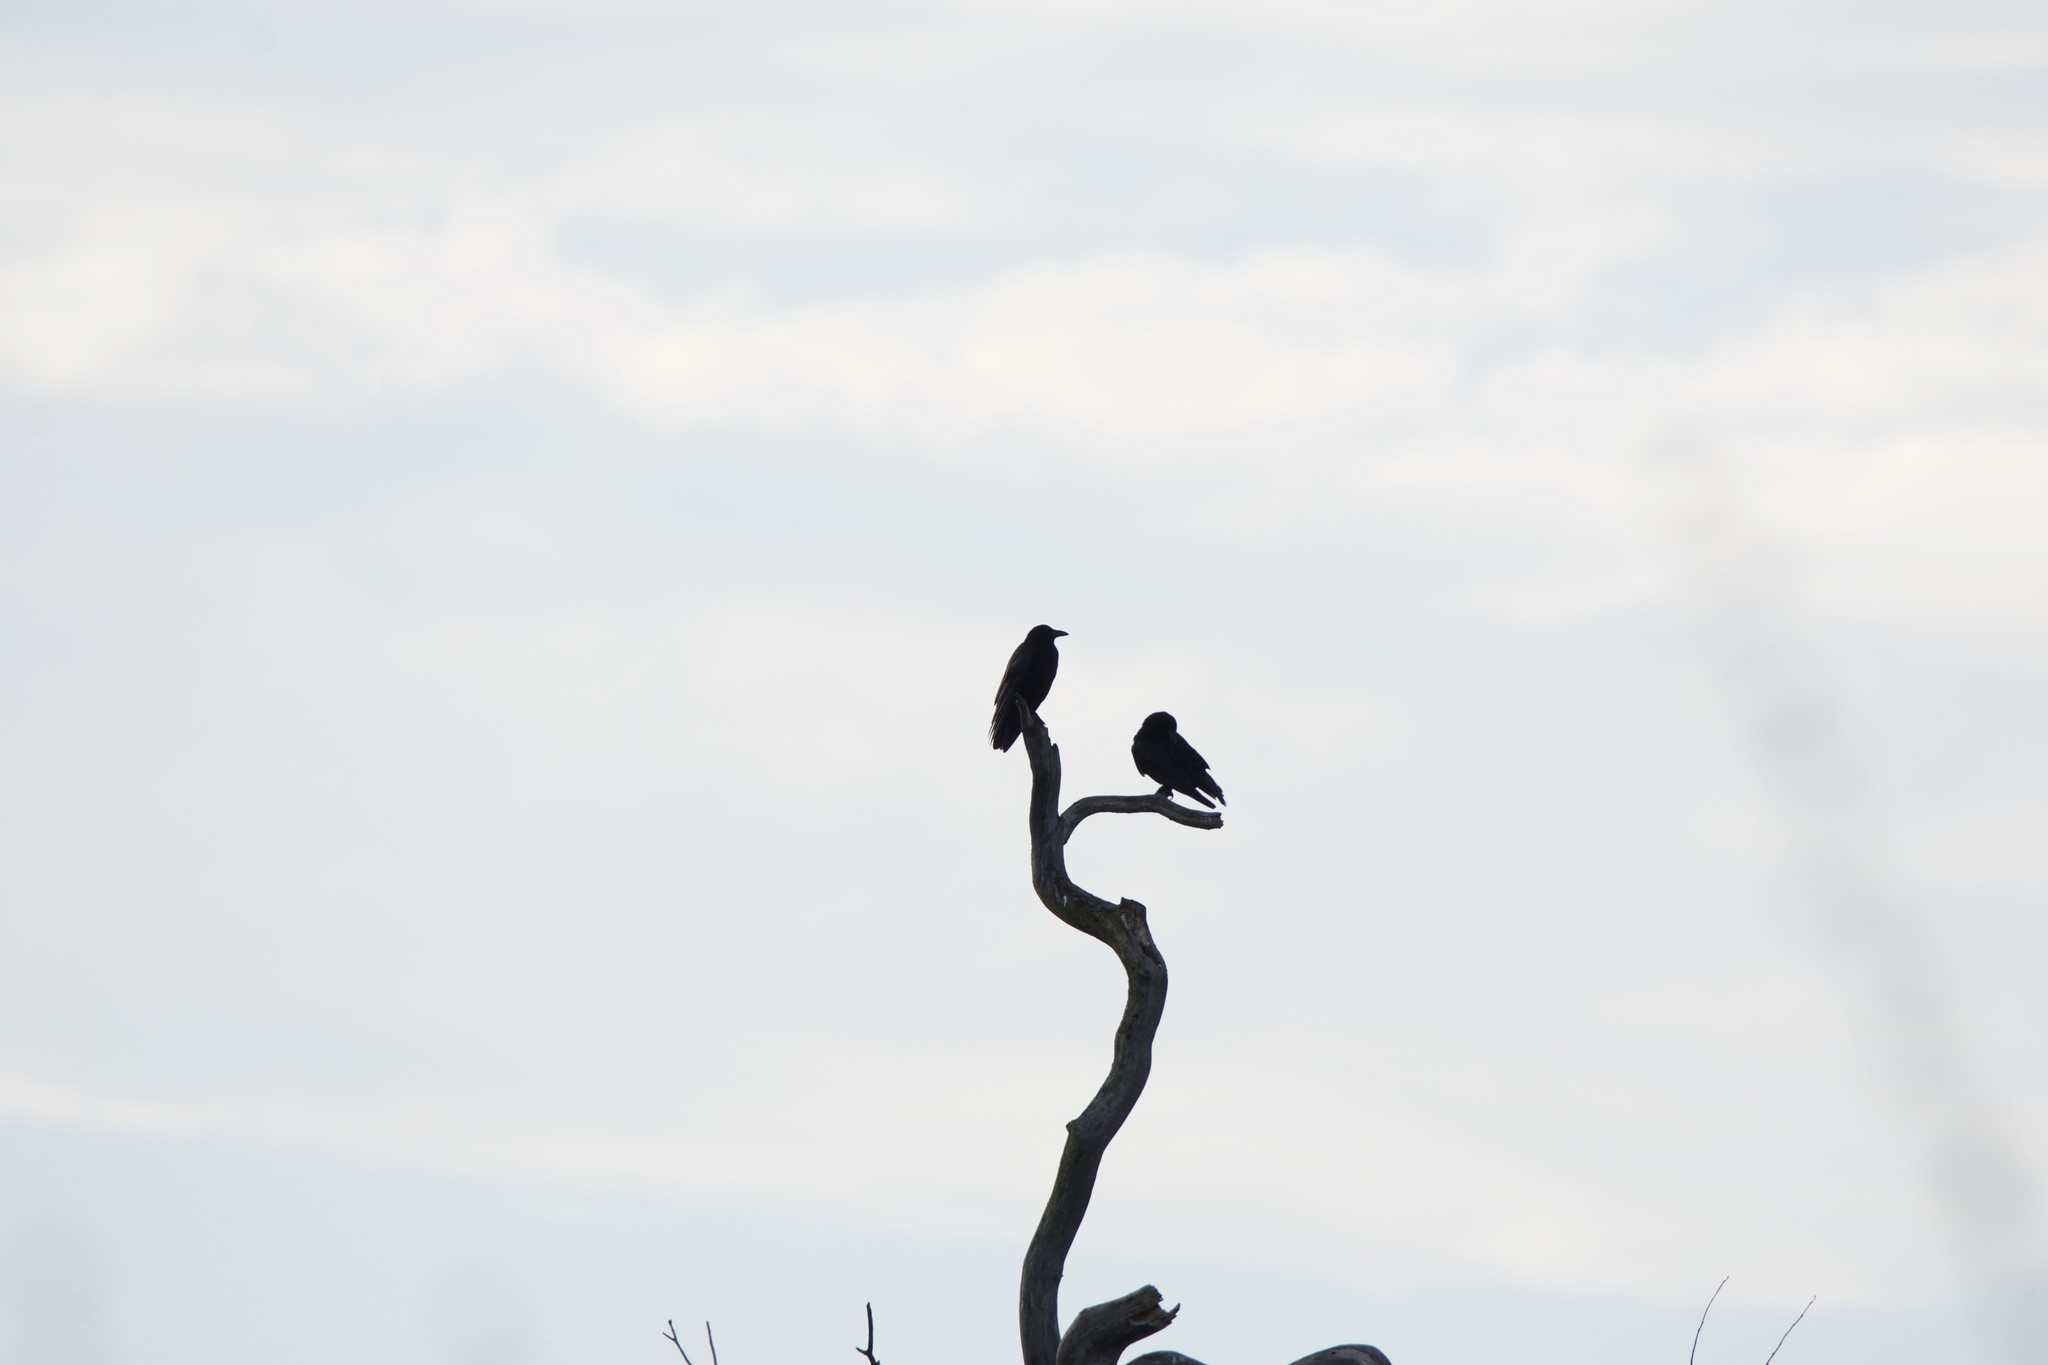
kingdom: Animalia
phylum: Chordata
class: Aves
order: Passeriformes
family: Corvidae
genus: Corvus
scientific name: Corvus brachyrhynchos
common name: American crow
